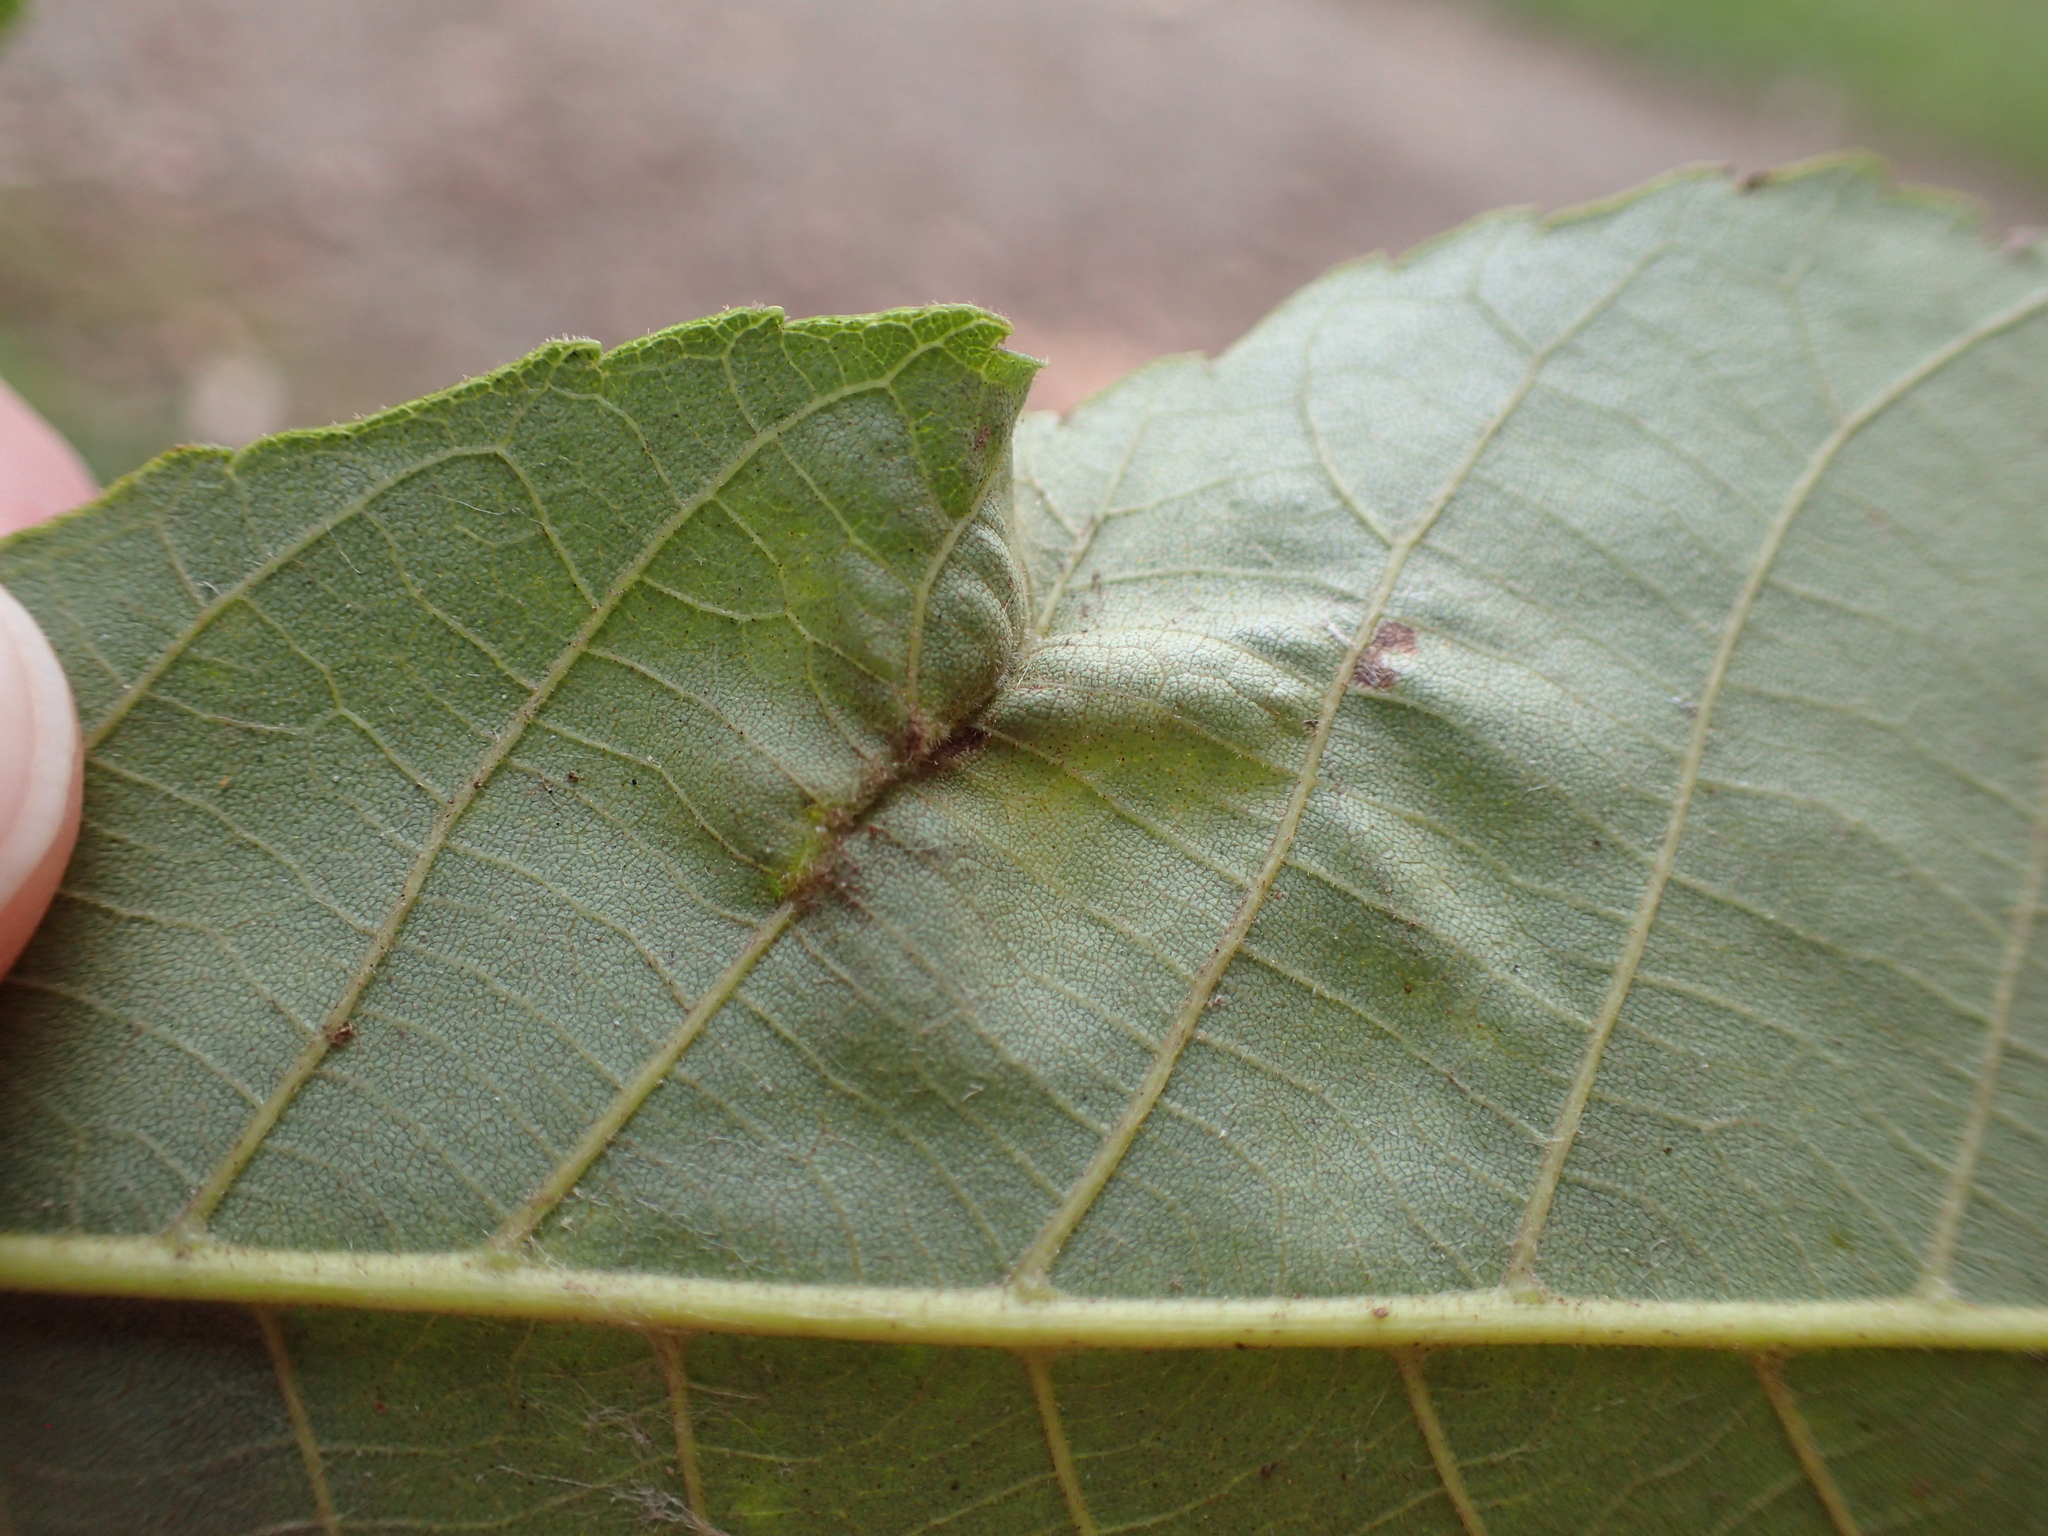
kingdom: Animalia
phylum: Arthropoda
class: Insecta
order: Hemiptera
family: Phylloxeridae
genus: Phylloxera
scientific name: Phylloxera caryaevenae
